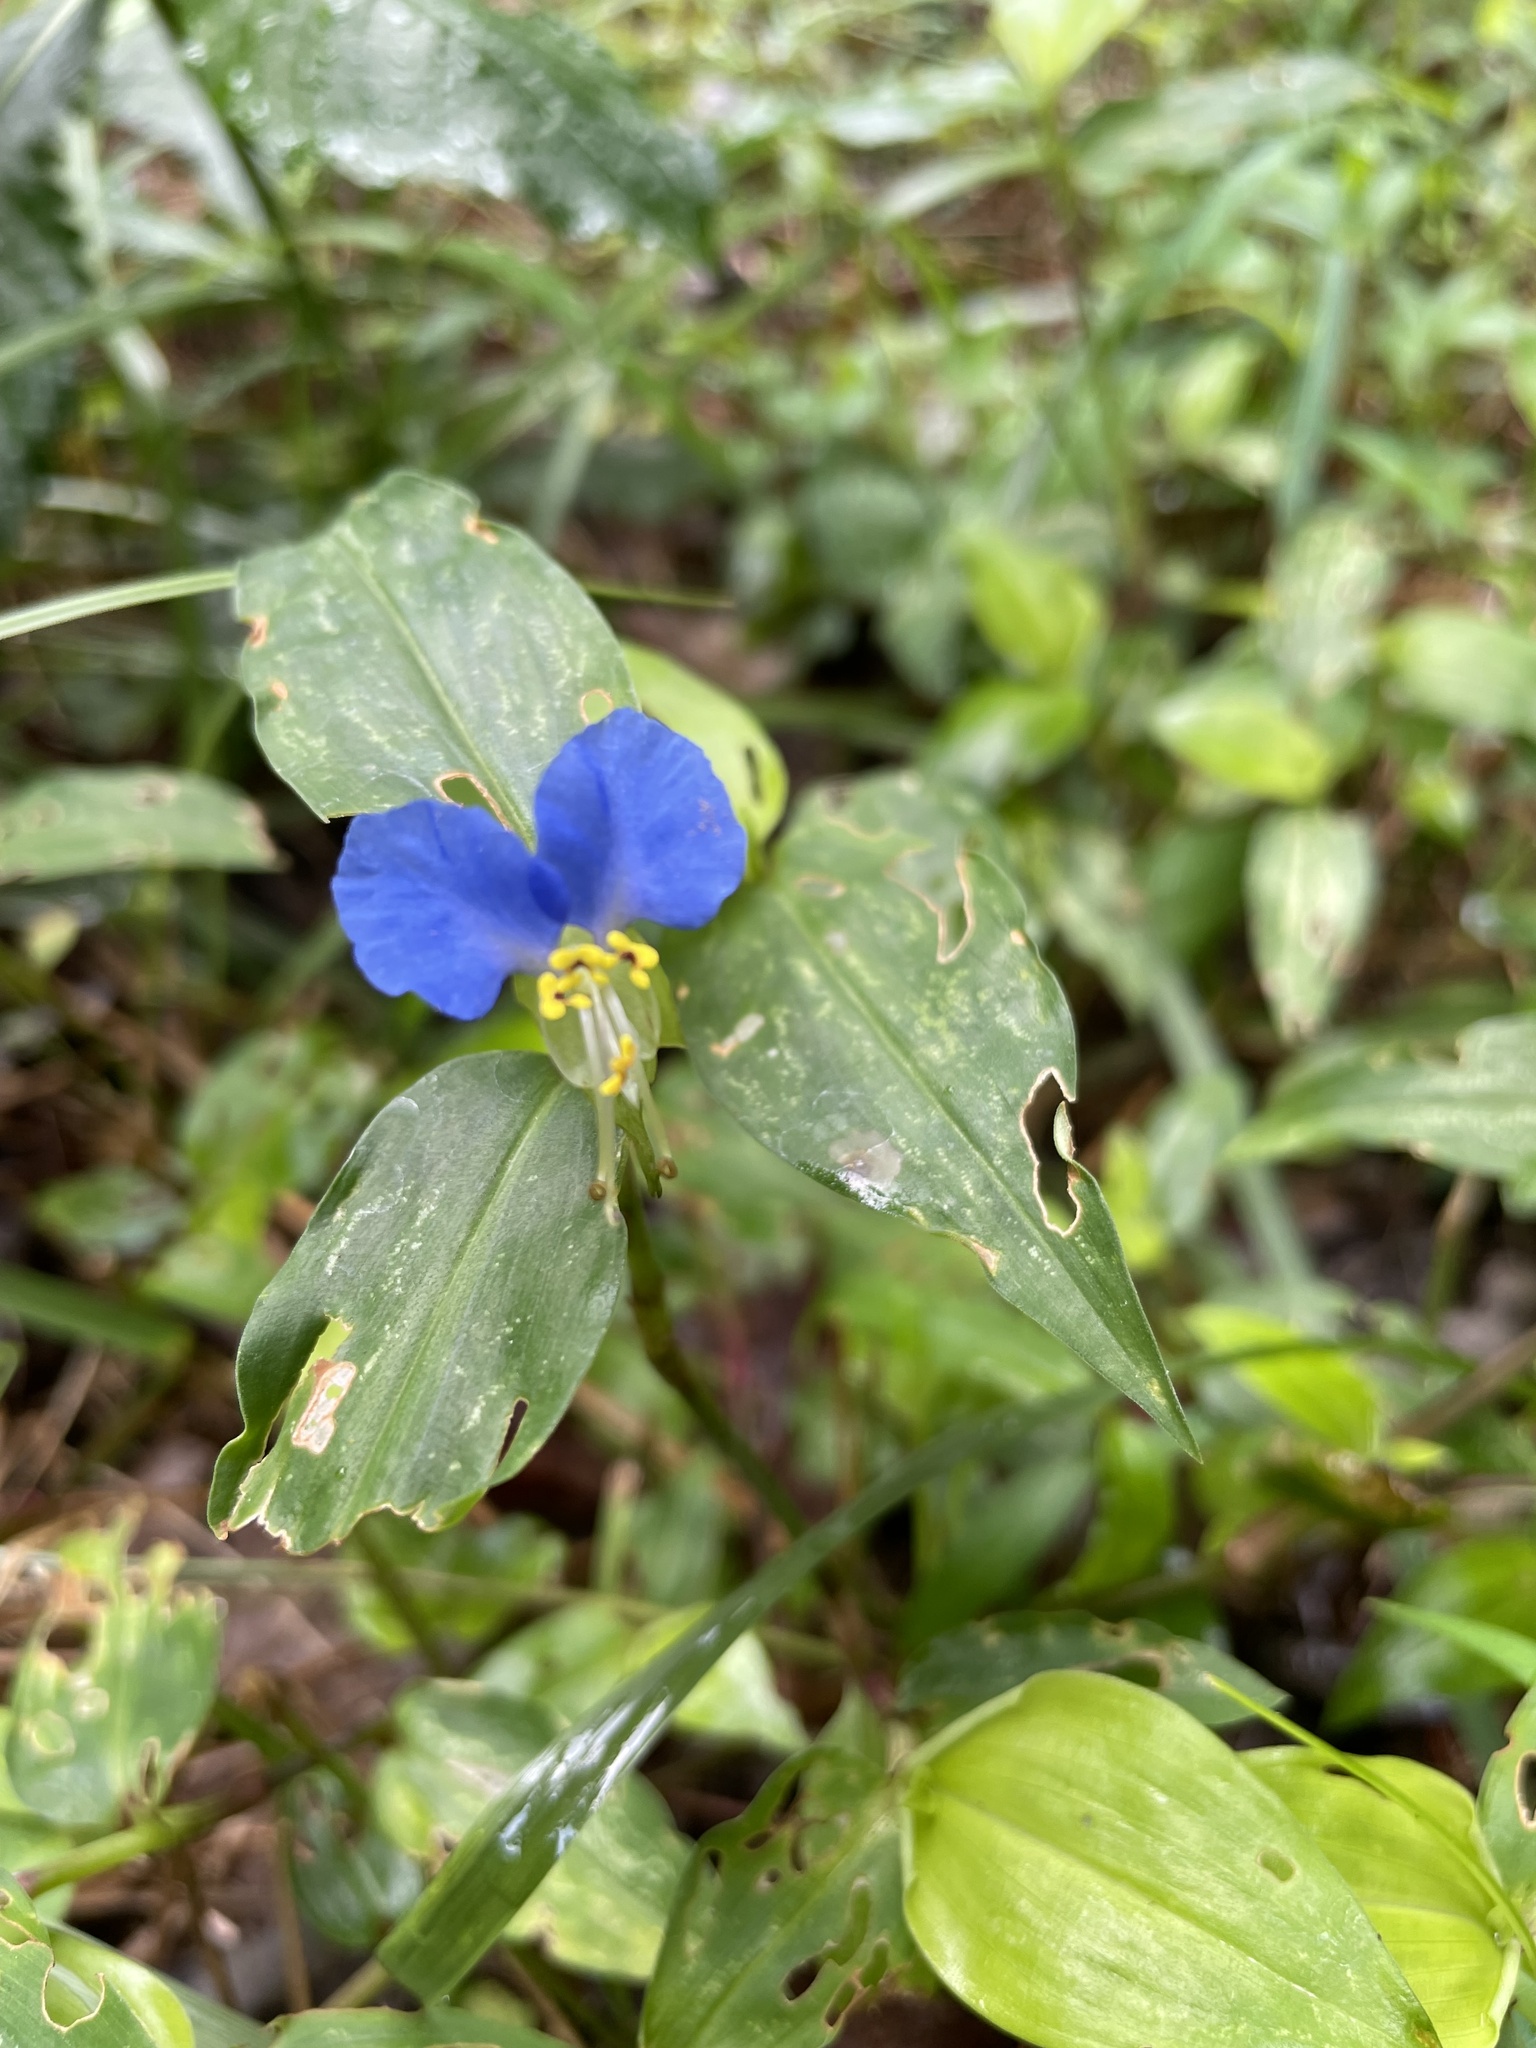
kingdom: Plantae
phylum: Tracheophyta
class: Liliopsida
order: Commelinales
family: Commelinaceae
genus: Commelina
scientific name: Commelina communis
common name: Asiatic dayflower
